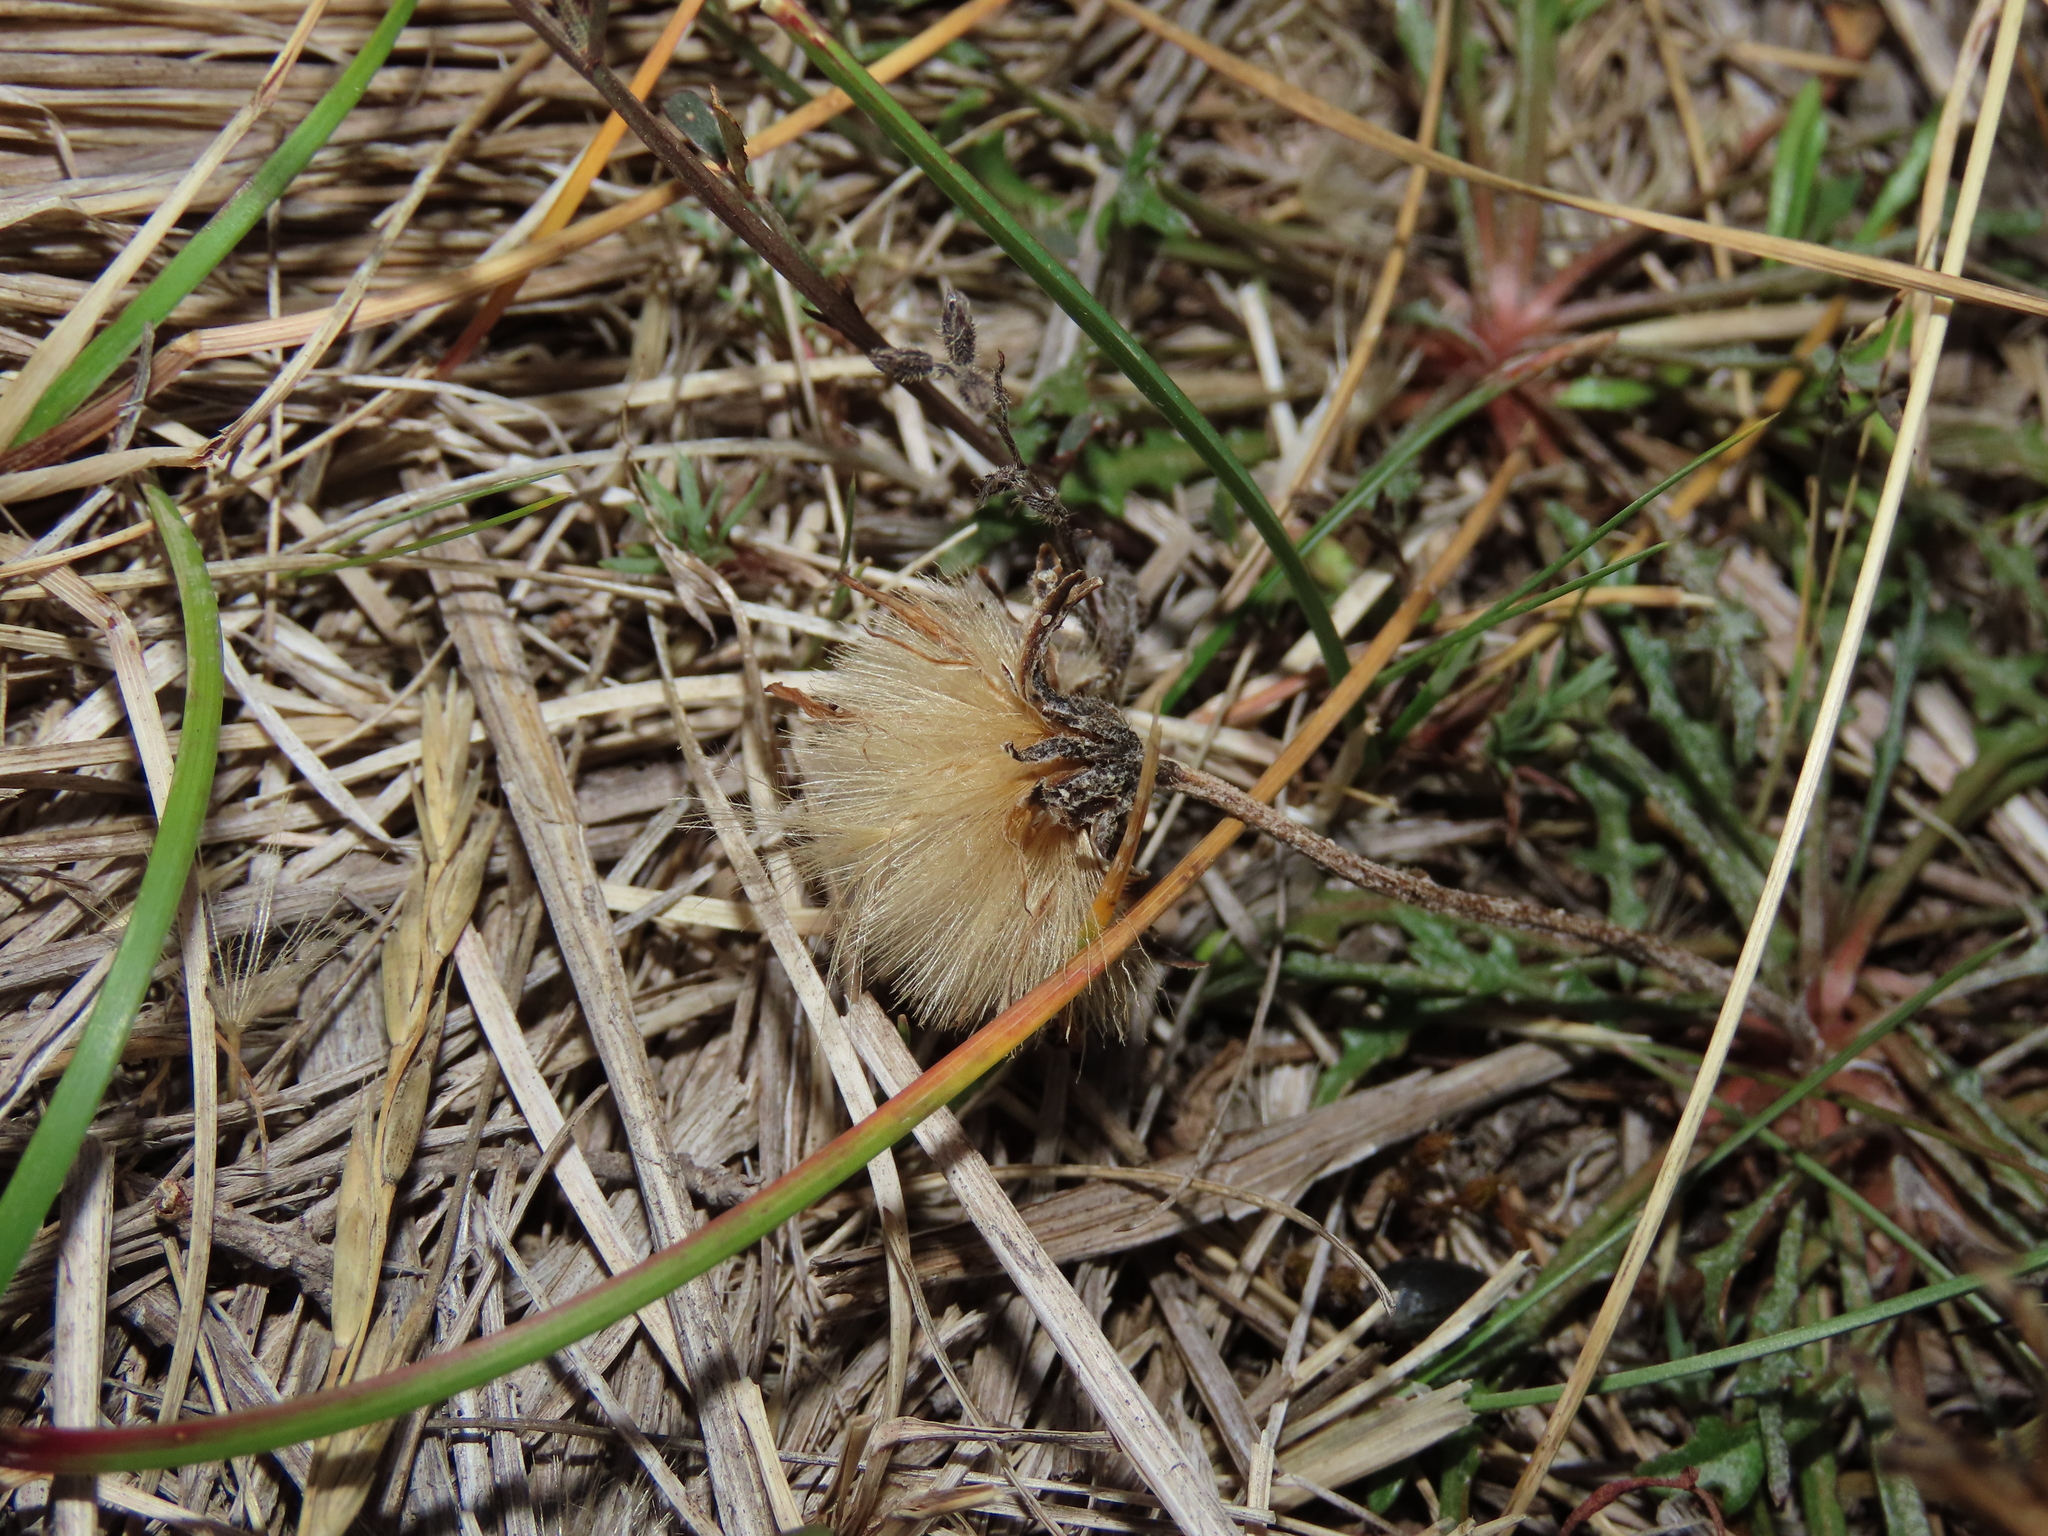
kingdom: Plantae
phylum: Tracheophyta
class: Magnoliopsida
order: Asterales
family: Asteraceae
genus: Hypochaeris
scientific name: Hypochaeris incana
